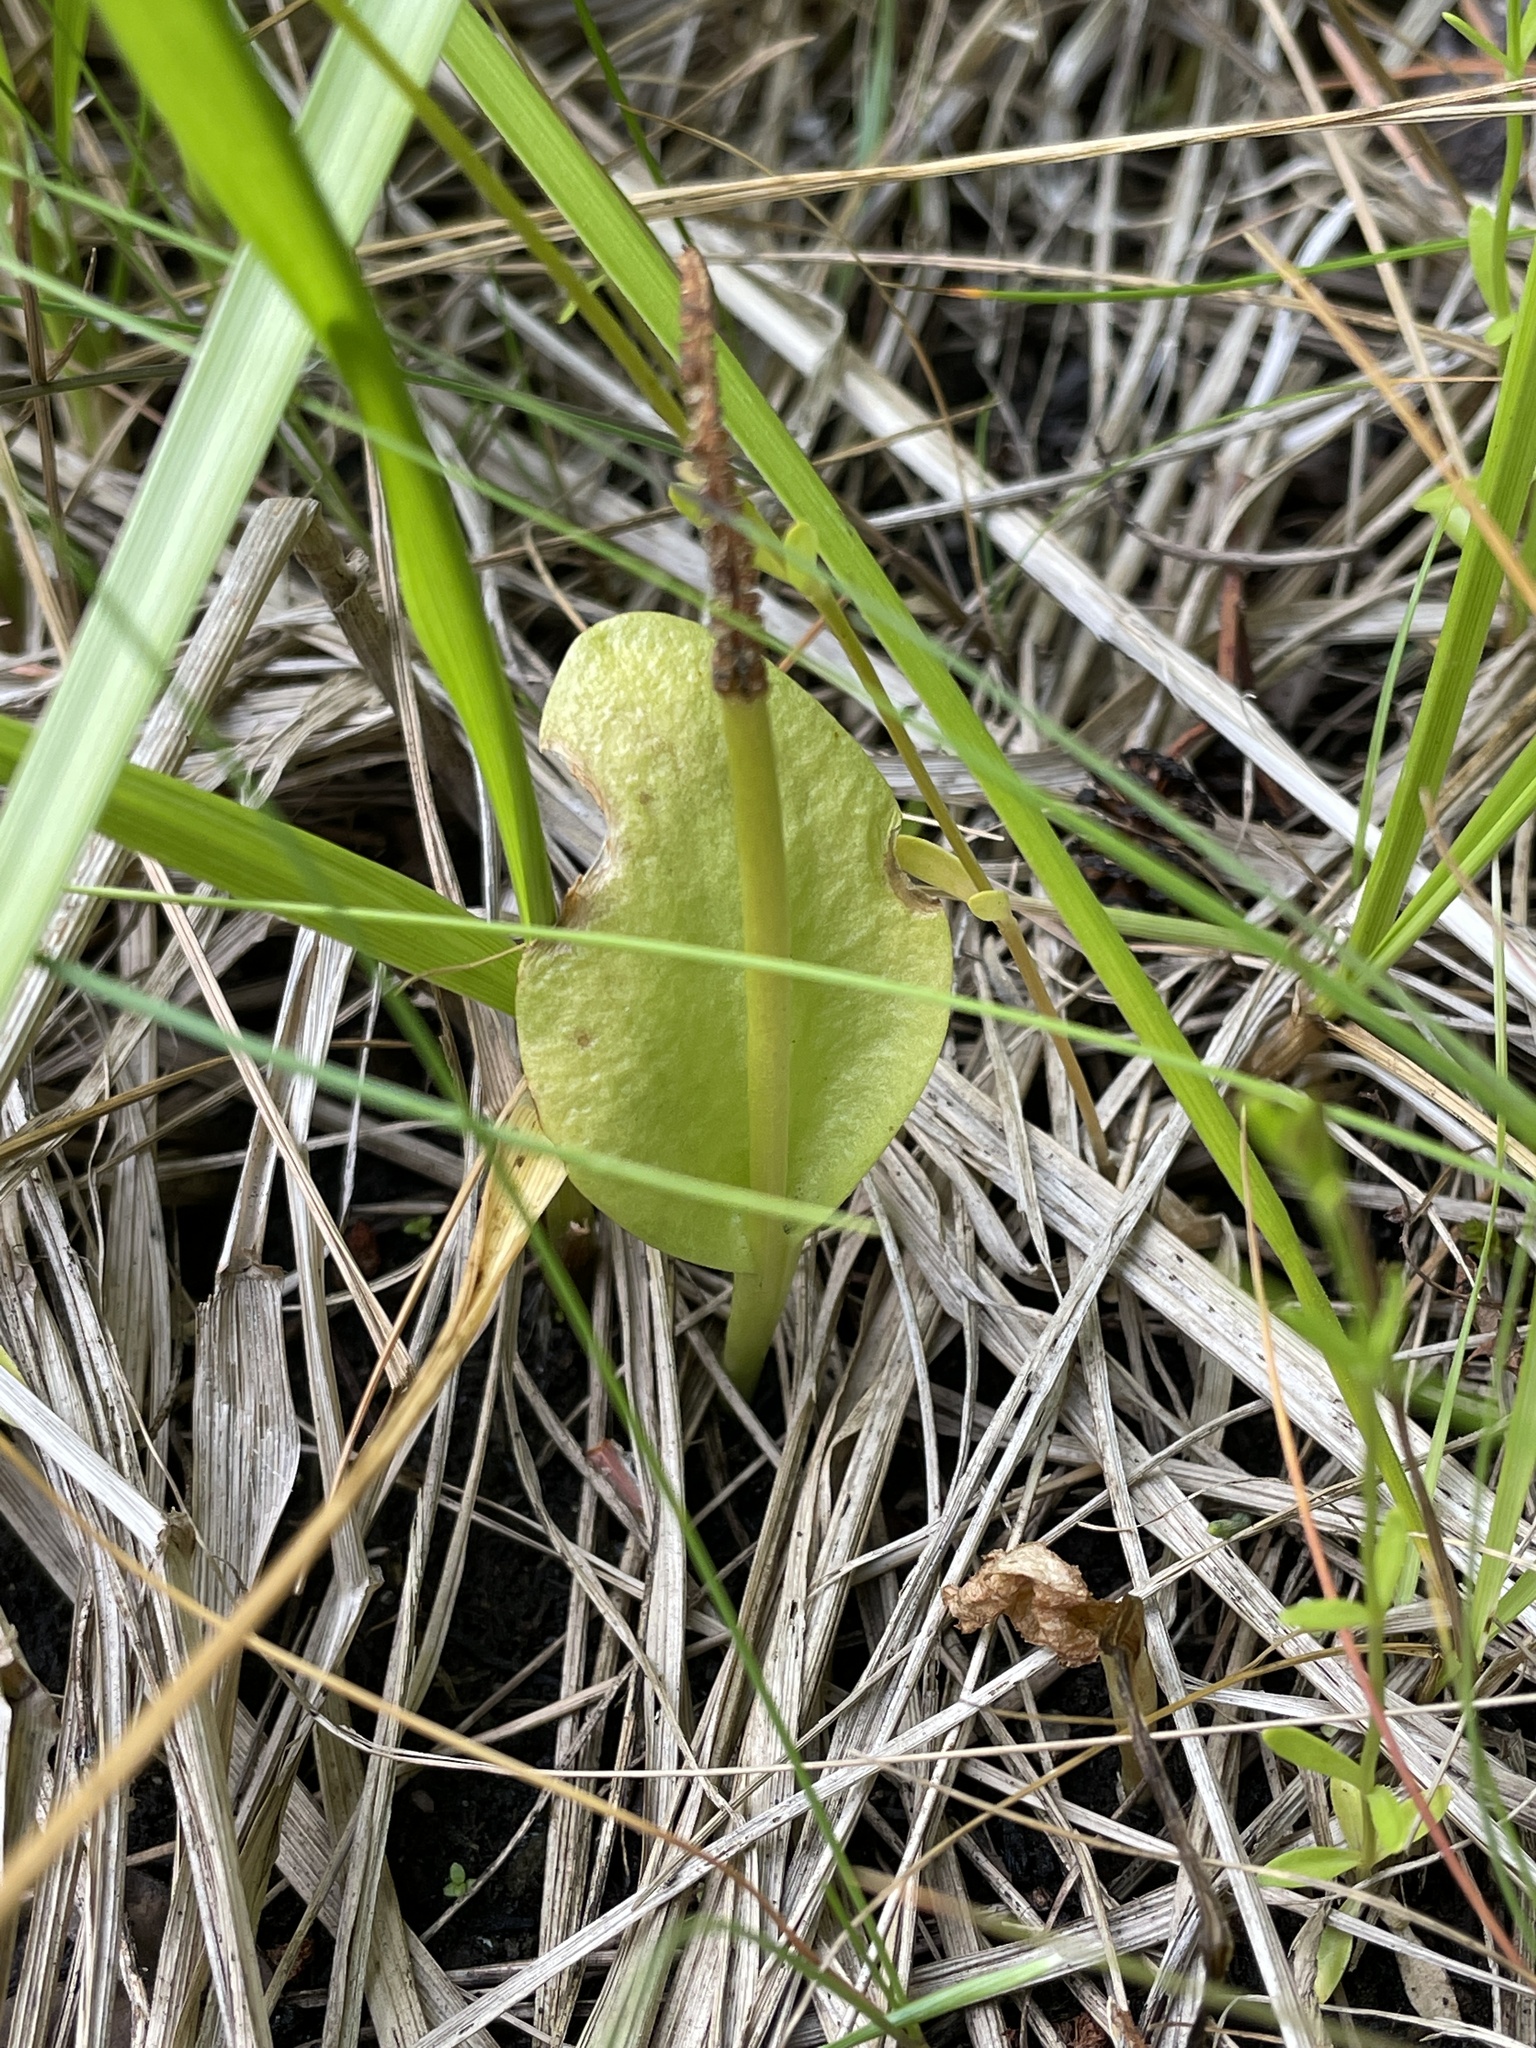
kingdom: Plantae
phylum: Tracheophyta
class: Polypodiopsida
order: Ophioglossales
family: Ophioglossaceae
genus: Ophioglossum
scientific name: Ophioglossum vulgatum
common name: Adder's-tongue
